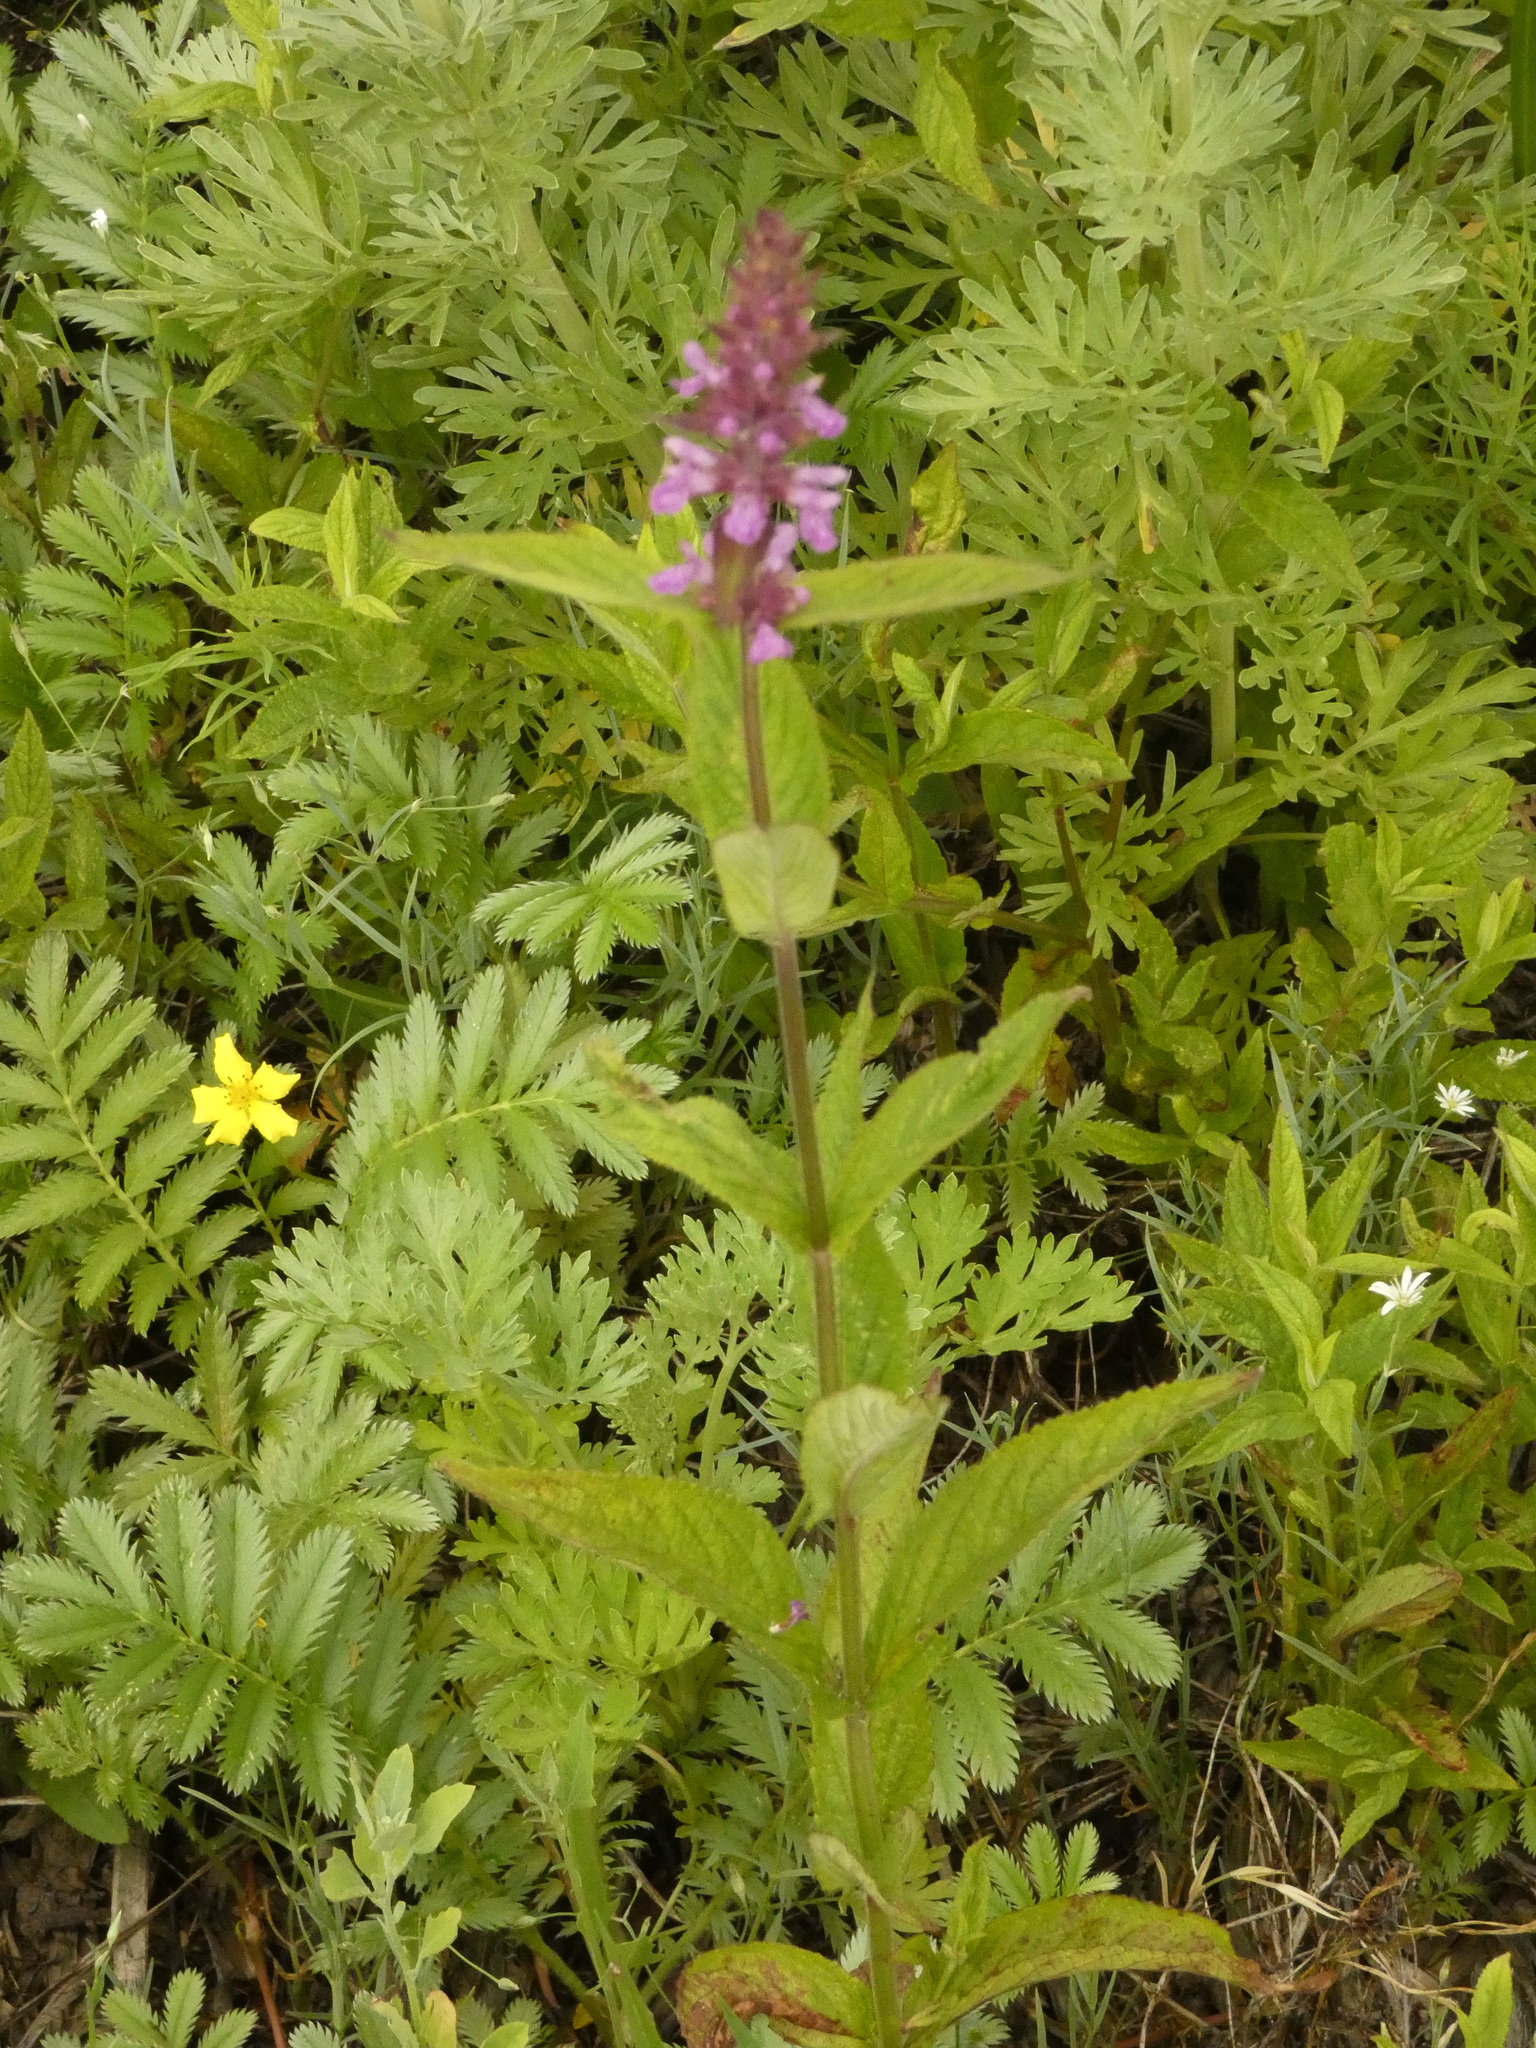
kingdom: Plantae
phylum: Tracheophyta
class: Magnoliopsida
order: Lamiales
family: Lamiaceae
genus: Stachys
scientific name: Stachys palustris
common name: Marsh woundwort
